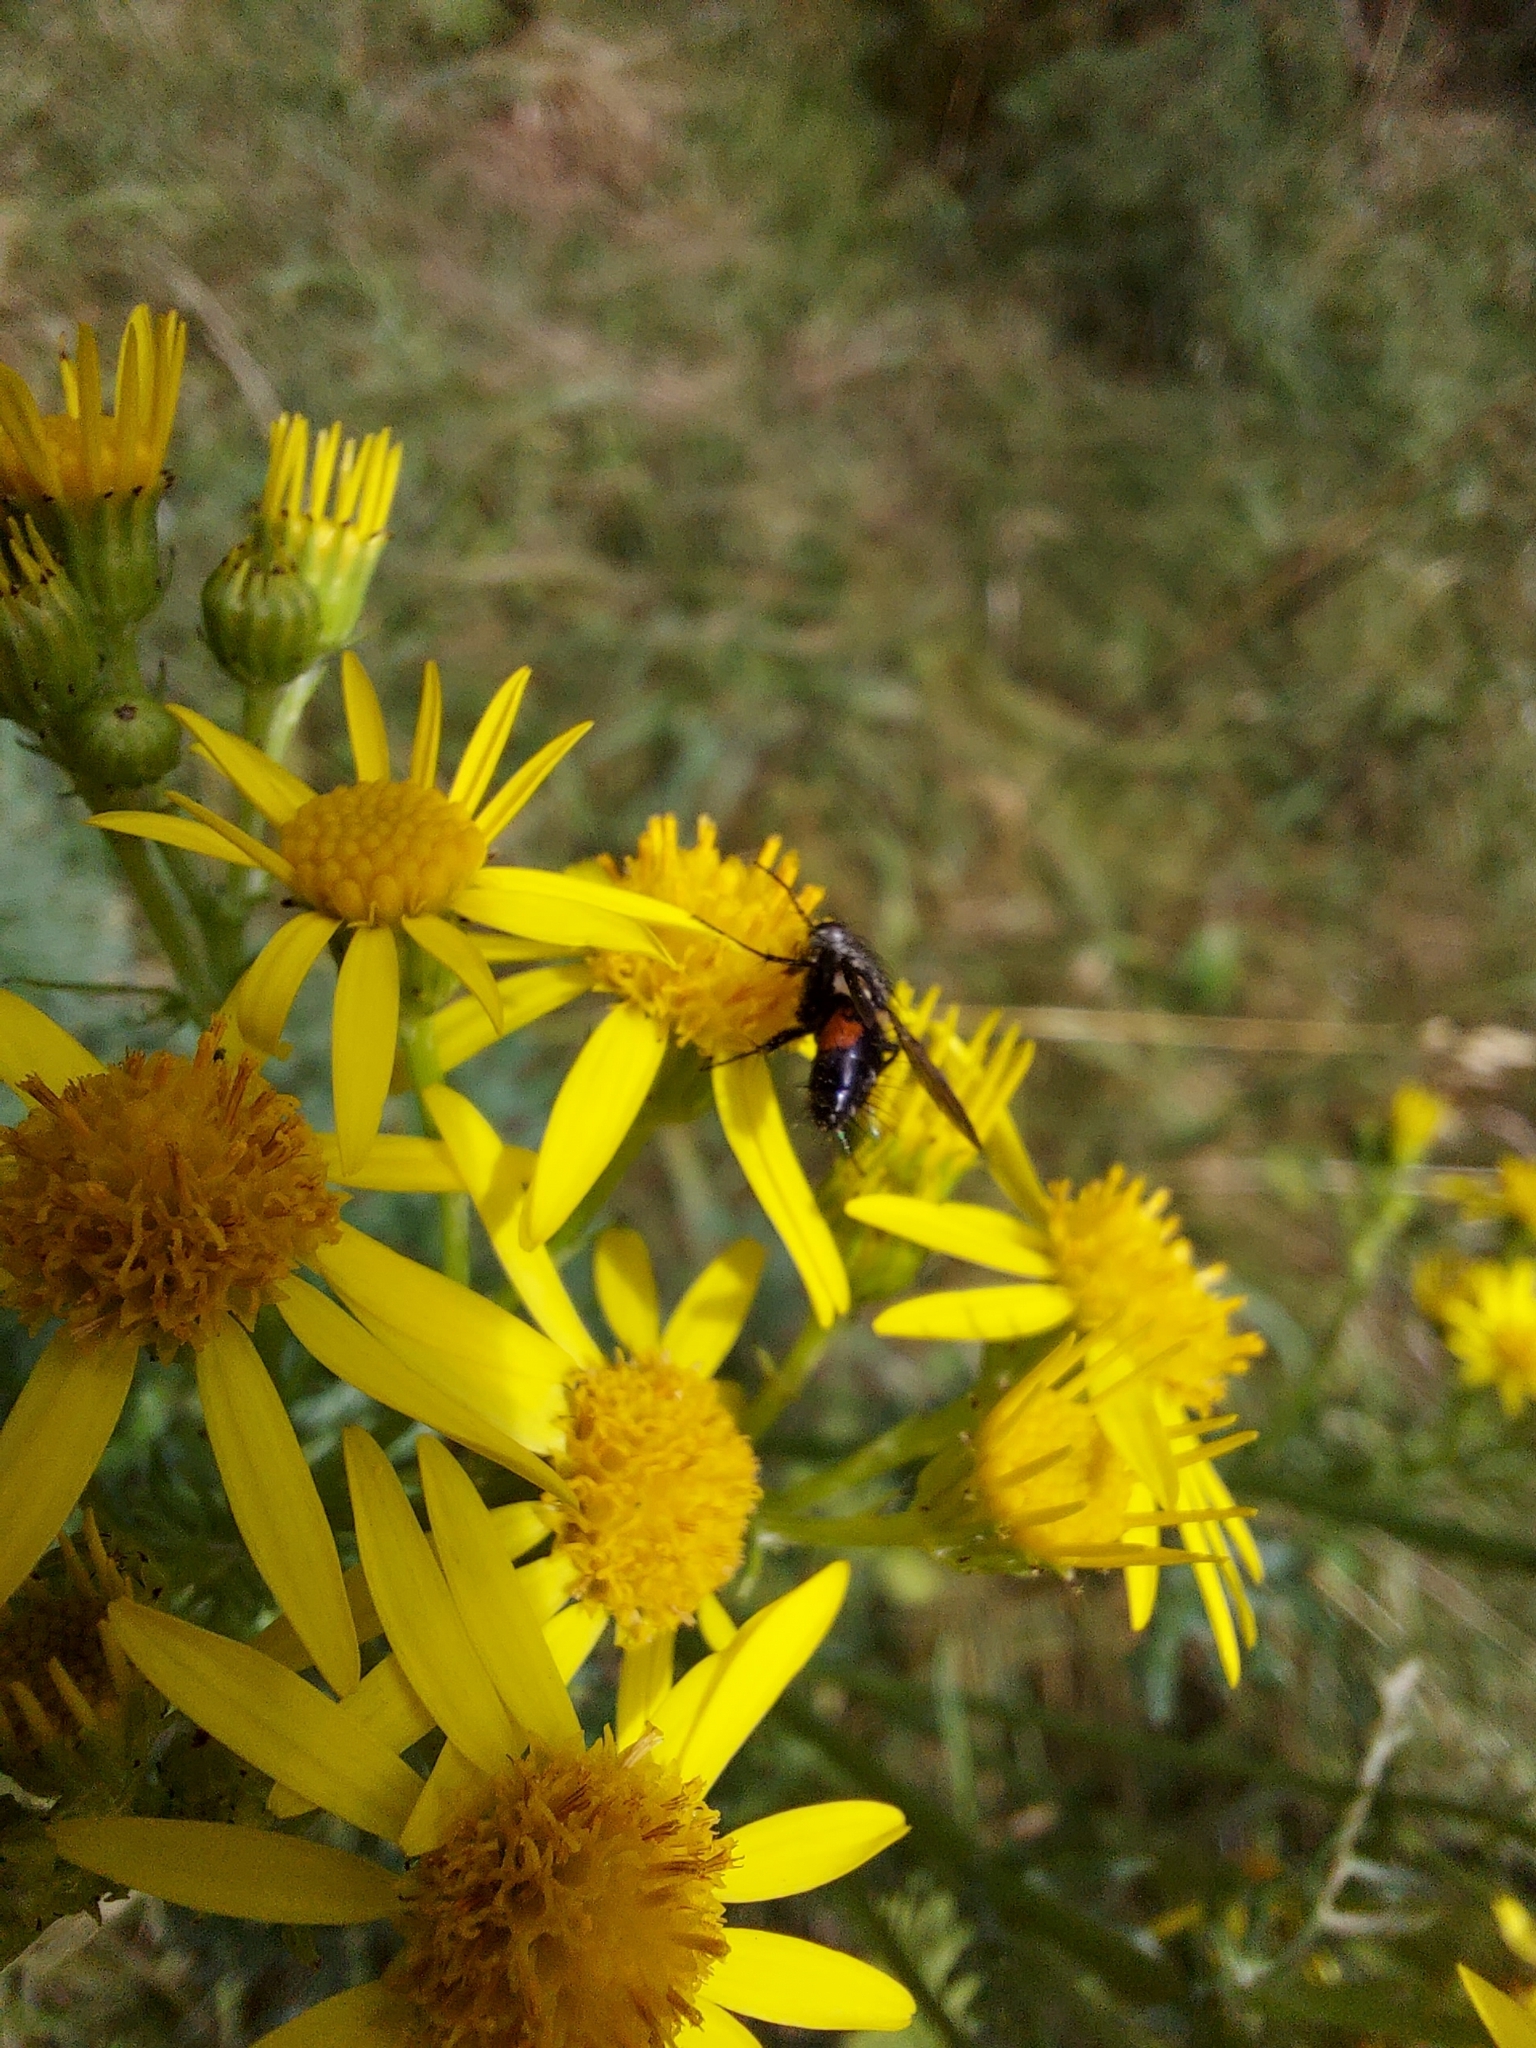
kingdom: Animalia
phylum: Arthropoda
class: Insecta
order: Diptera
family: Tachinidae
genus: Eriothrix
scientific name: Eriothrix rufomaculatus
